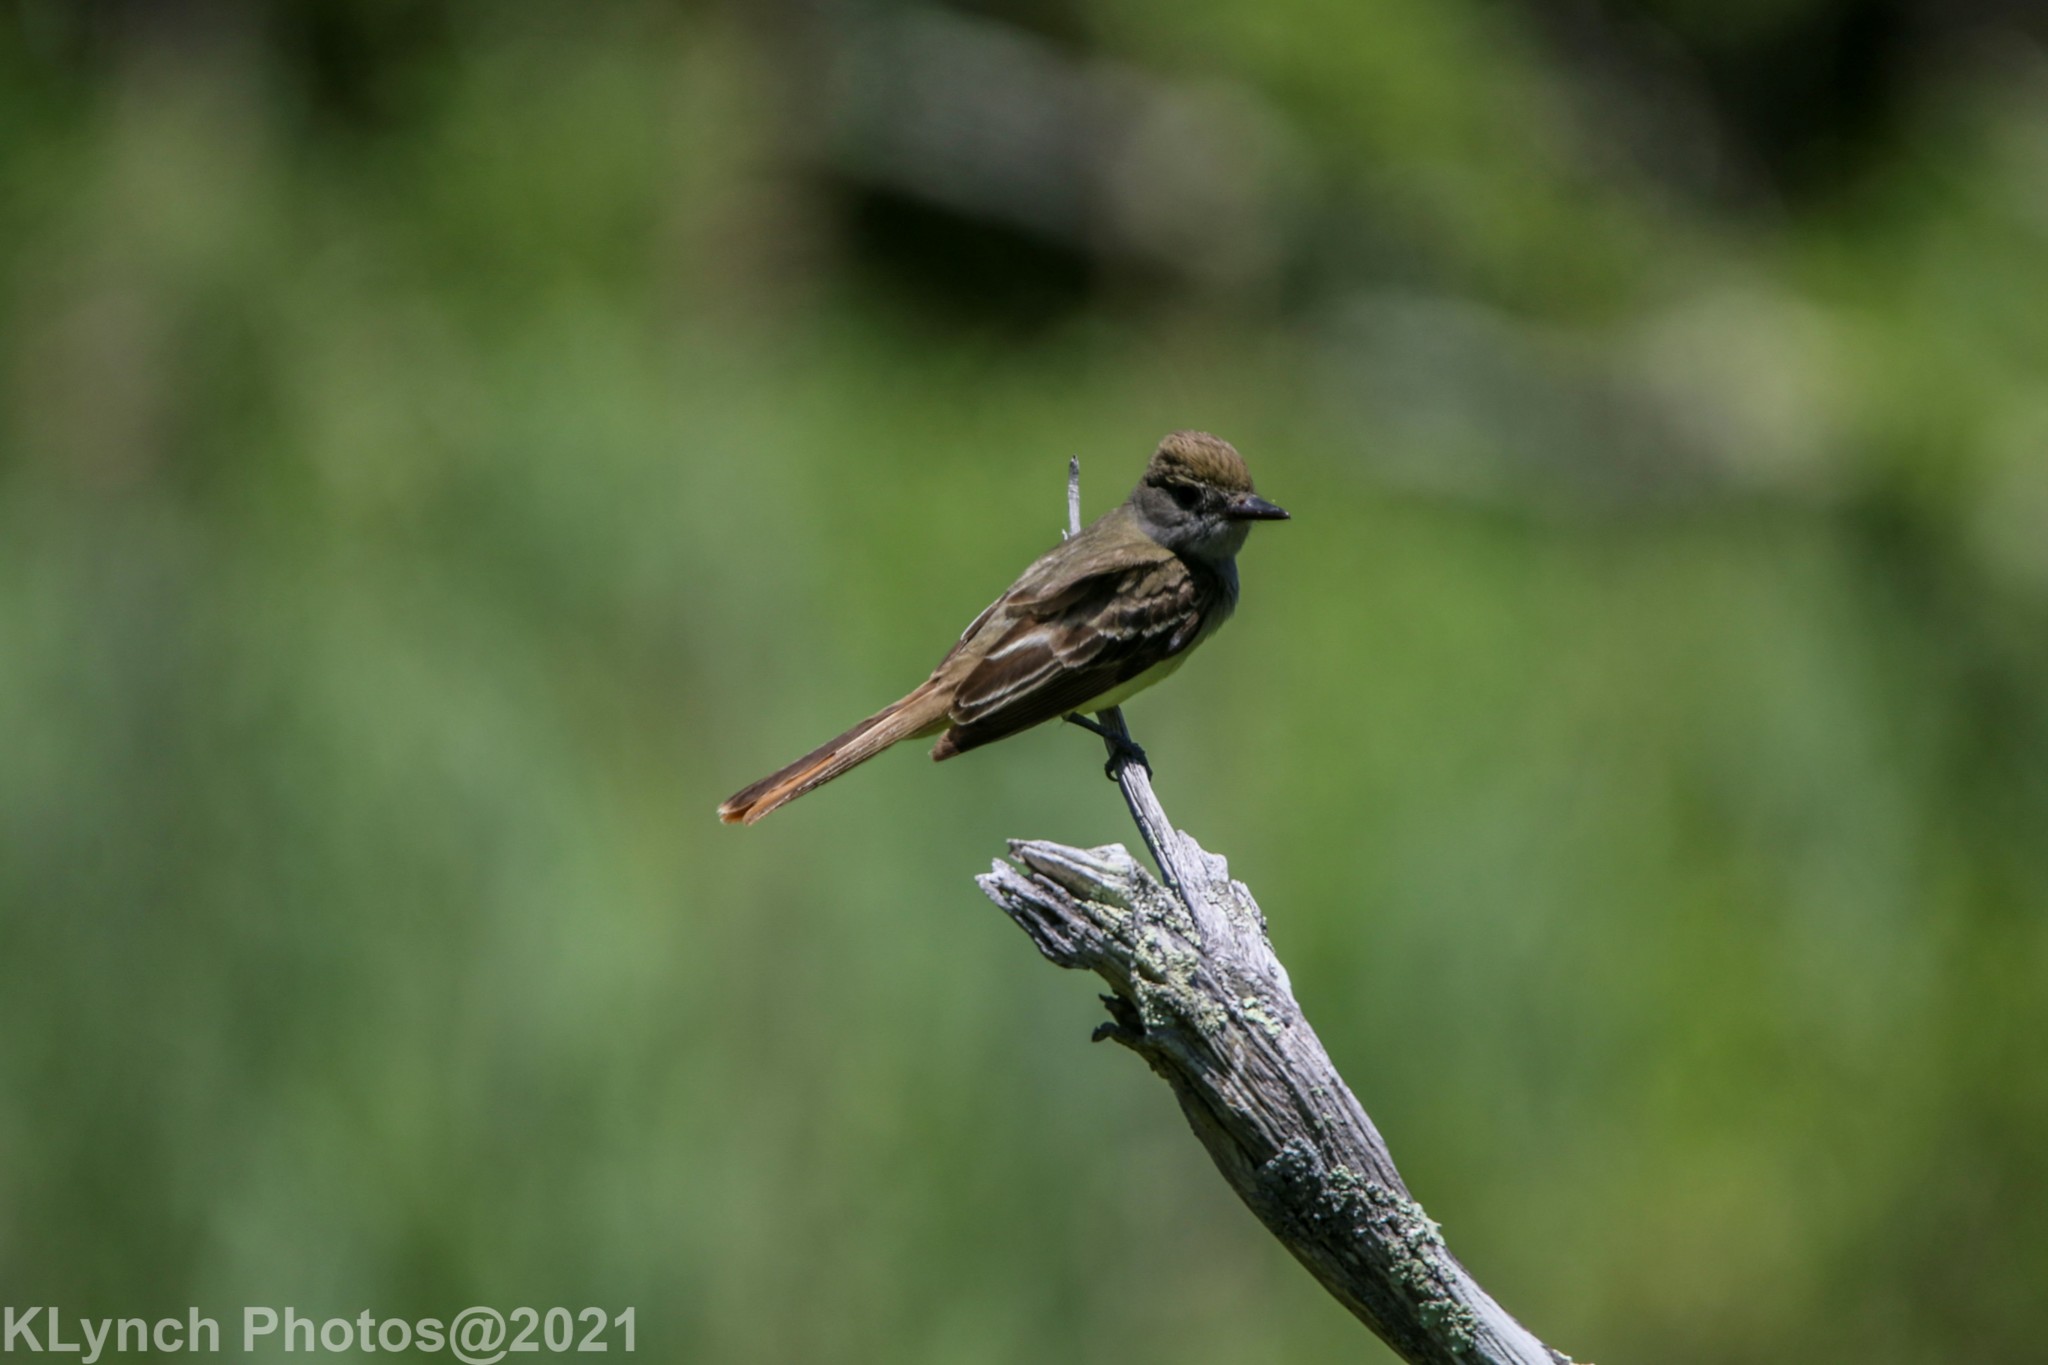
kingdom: Animalia
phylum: Chordata
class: Aves
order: Passeriformes
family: Tyrannidae
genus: Myiarchus
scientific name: Myiarchus crinitus
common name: Great crested flycatcher
